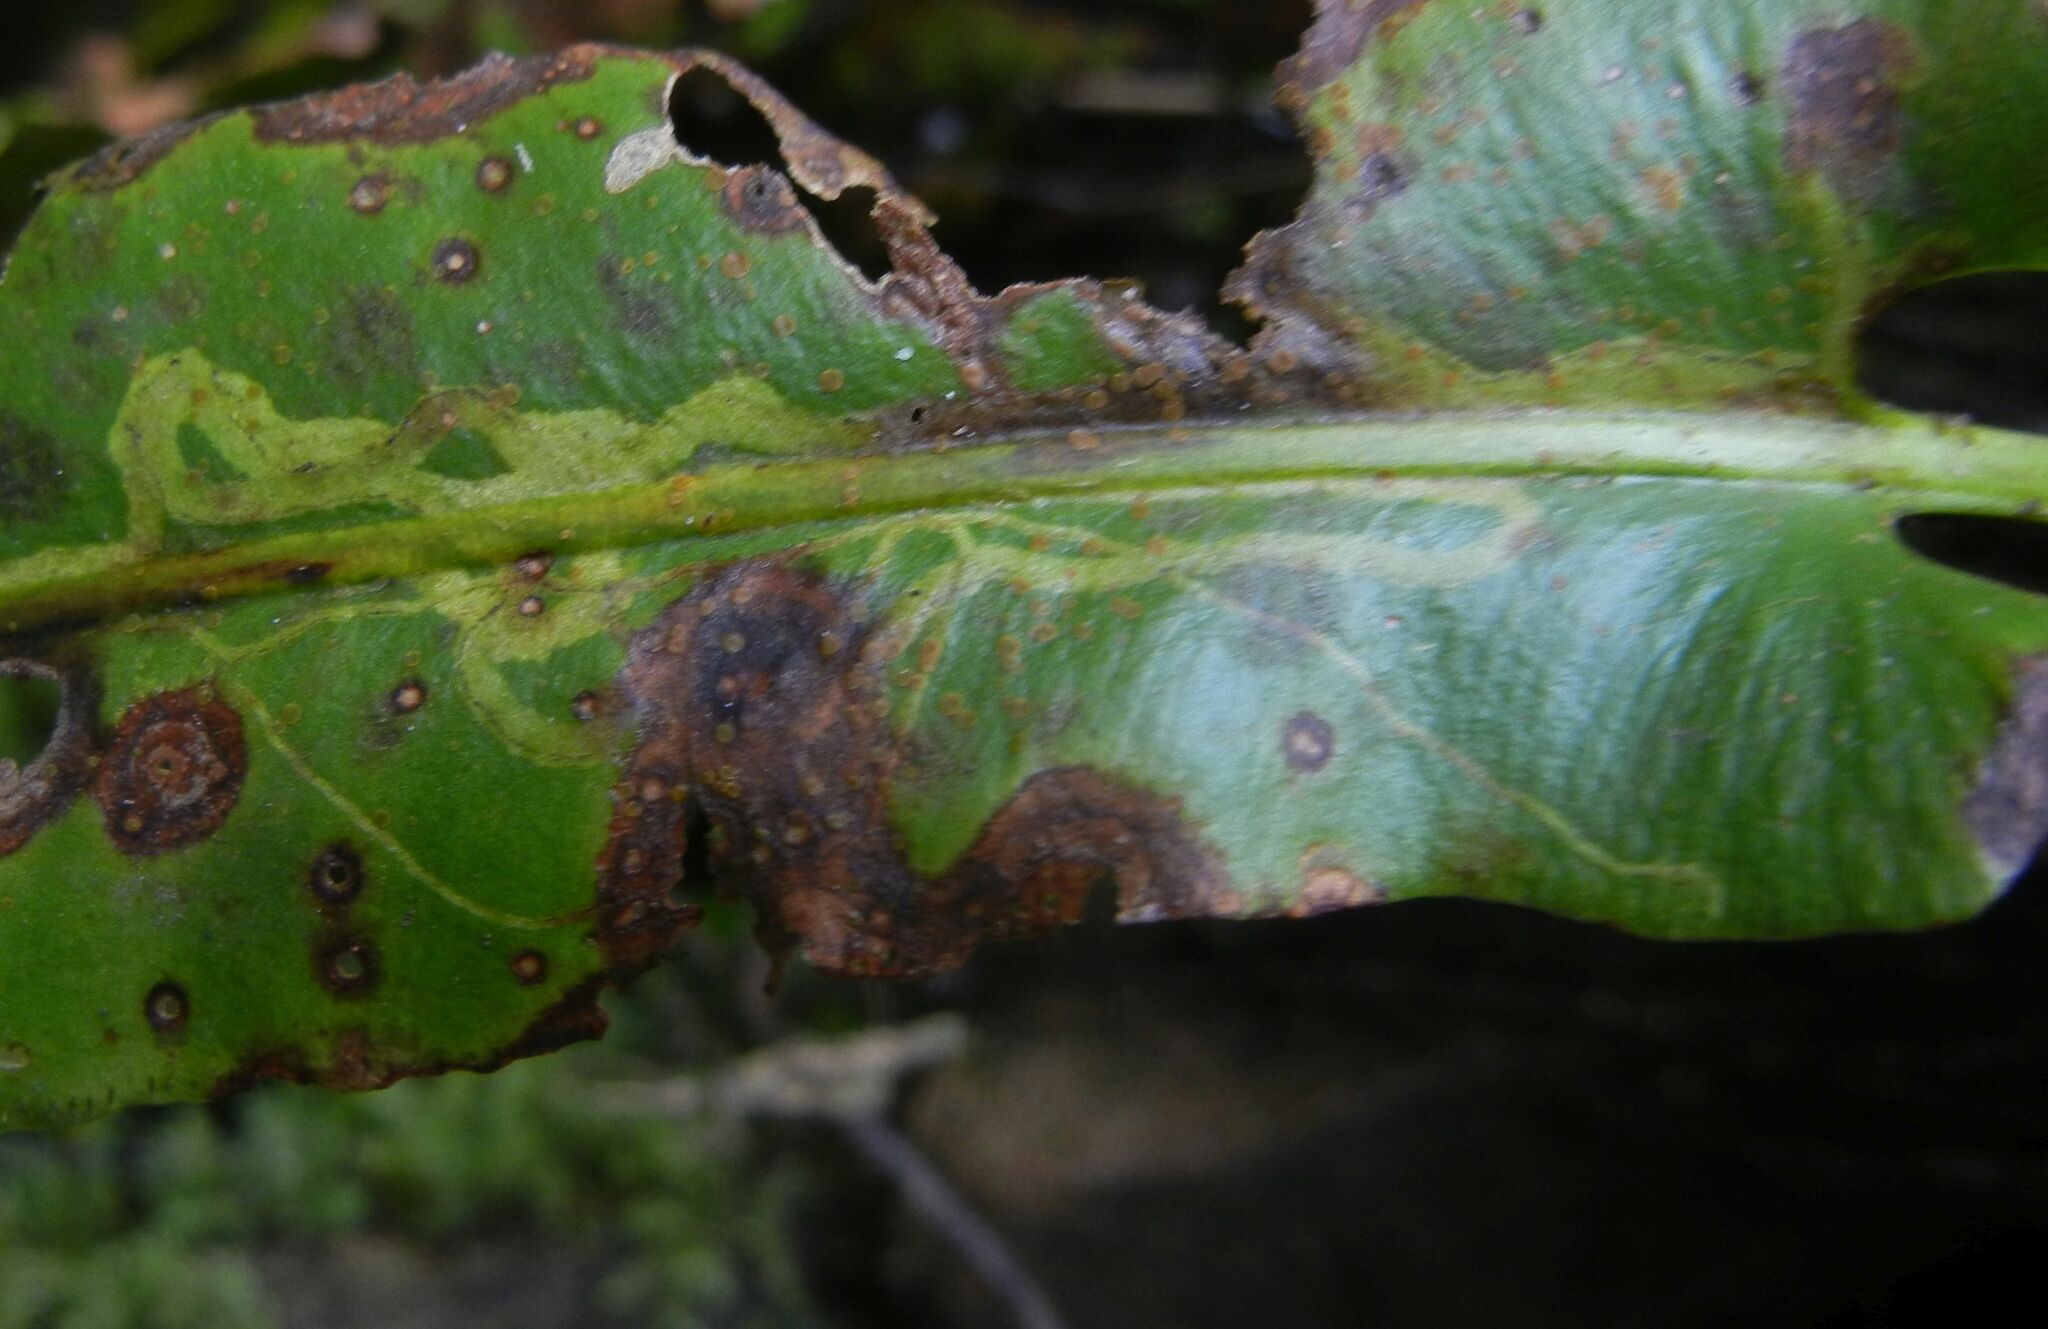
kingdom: Animalia
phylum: Arthropoda
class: Insecta
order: Diptera
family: Agromyzidae
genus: Phytomyza
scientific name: Phytomyza scolopendri
